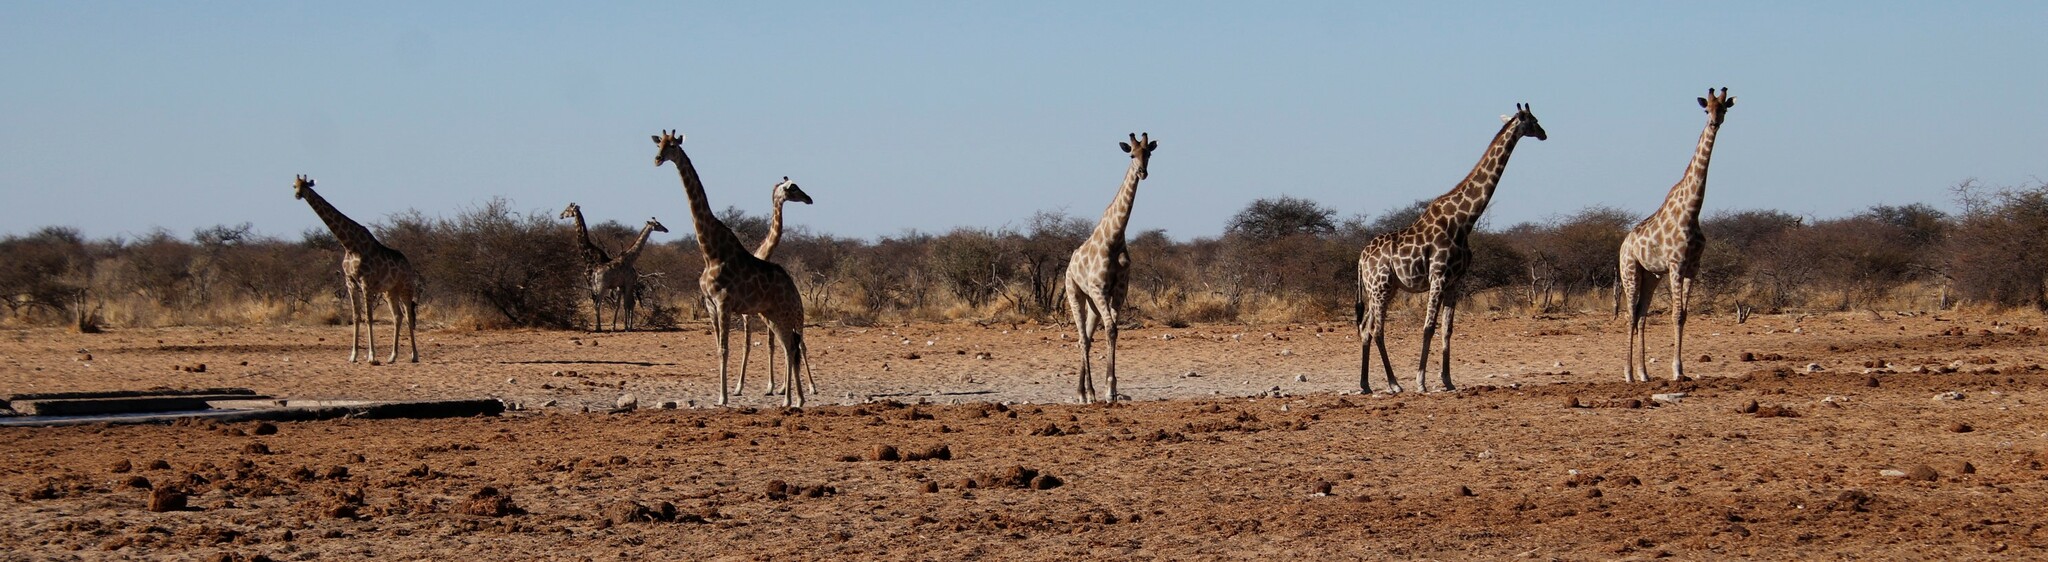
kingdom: Animalia
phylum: Chordata
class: Mammalia
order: Artiodactyla
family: Giraffidae
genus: Giraffa
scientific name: Giraffa giraffa
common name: Southern giraffe
